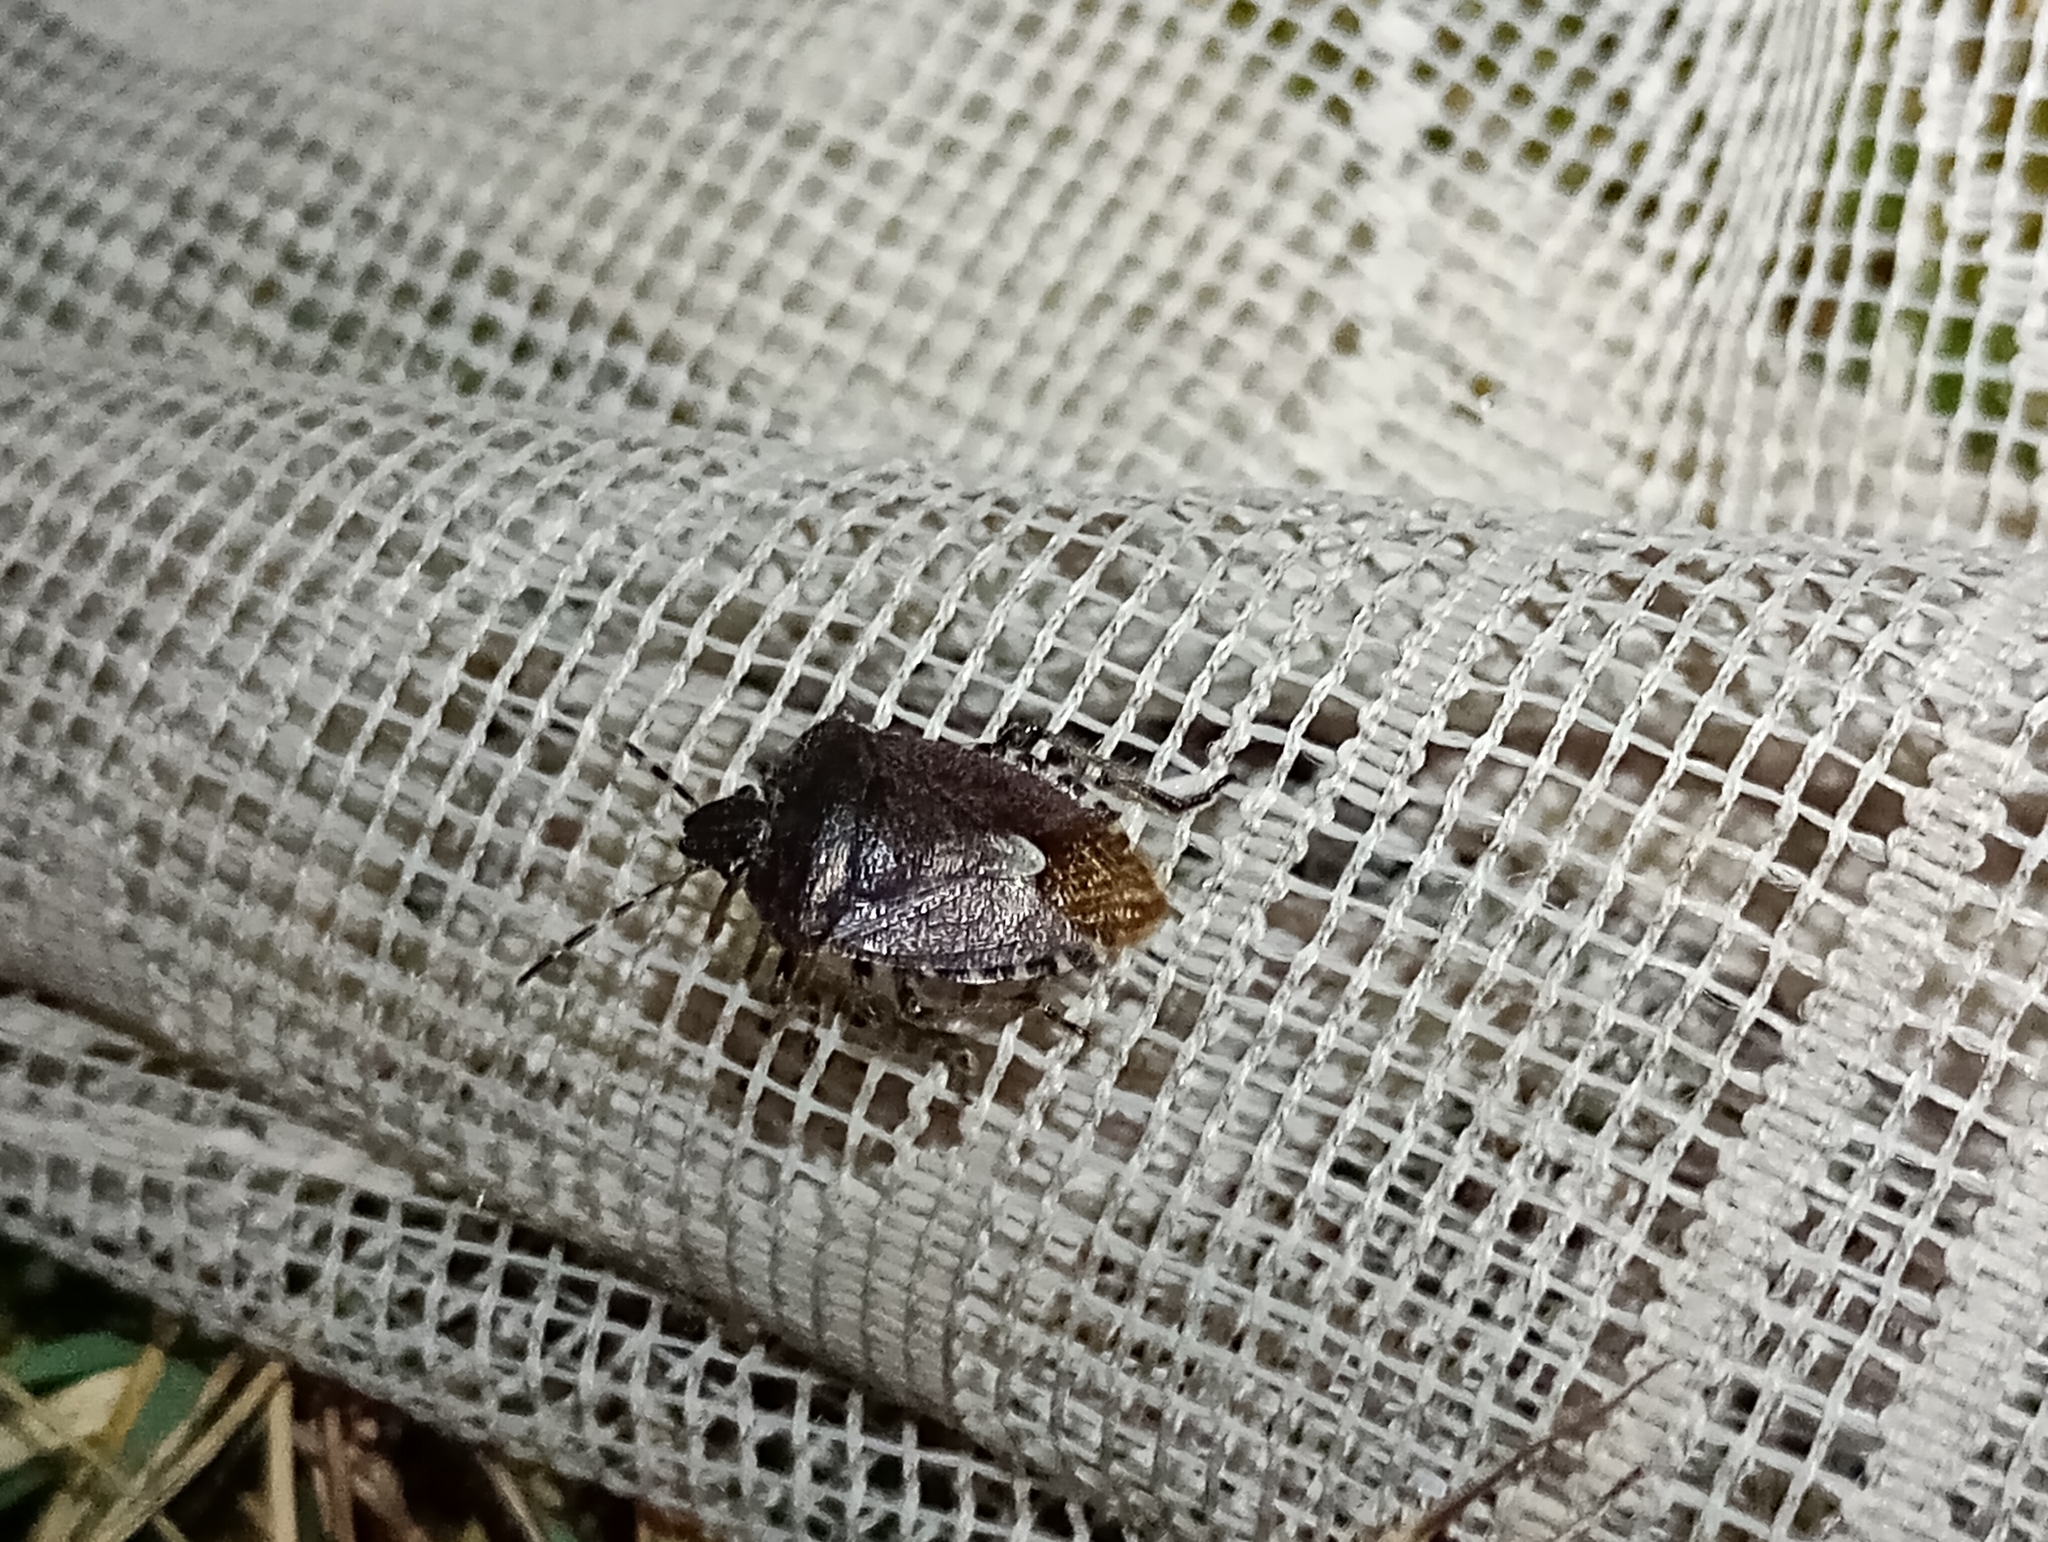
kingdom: Animalia
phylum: Arthropoda
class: Insecta
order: Hemiptera
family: Pentatomidae
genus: Dolycoris
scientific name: Dolycoris baccarum
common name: Sloe bug
